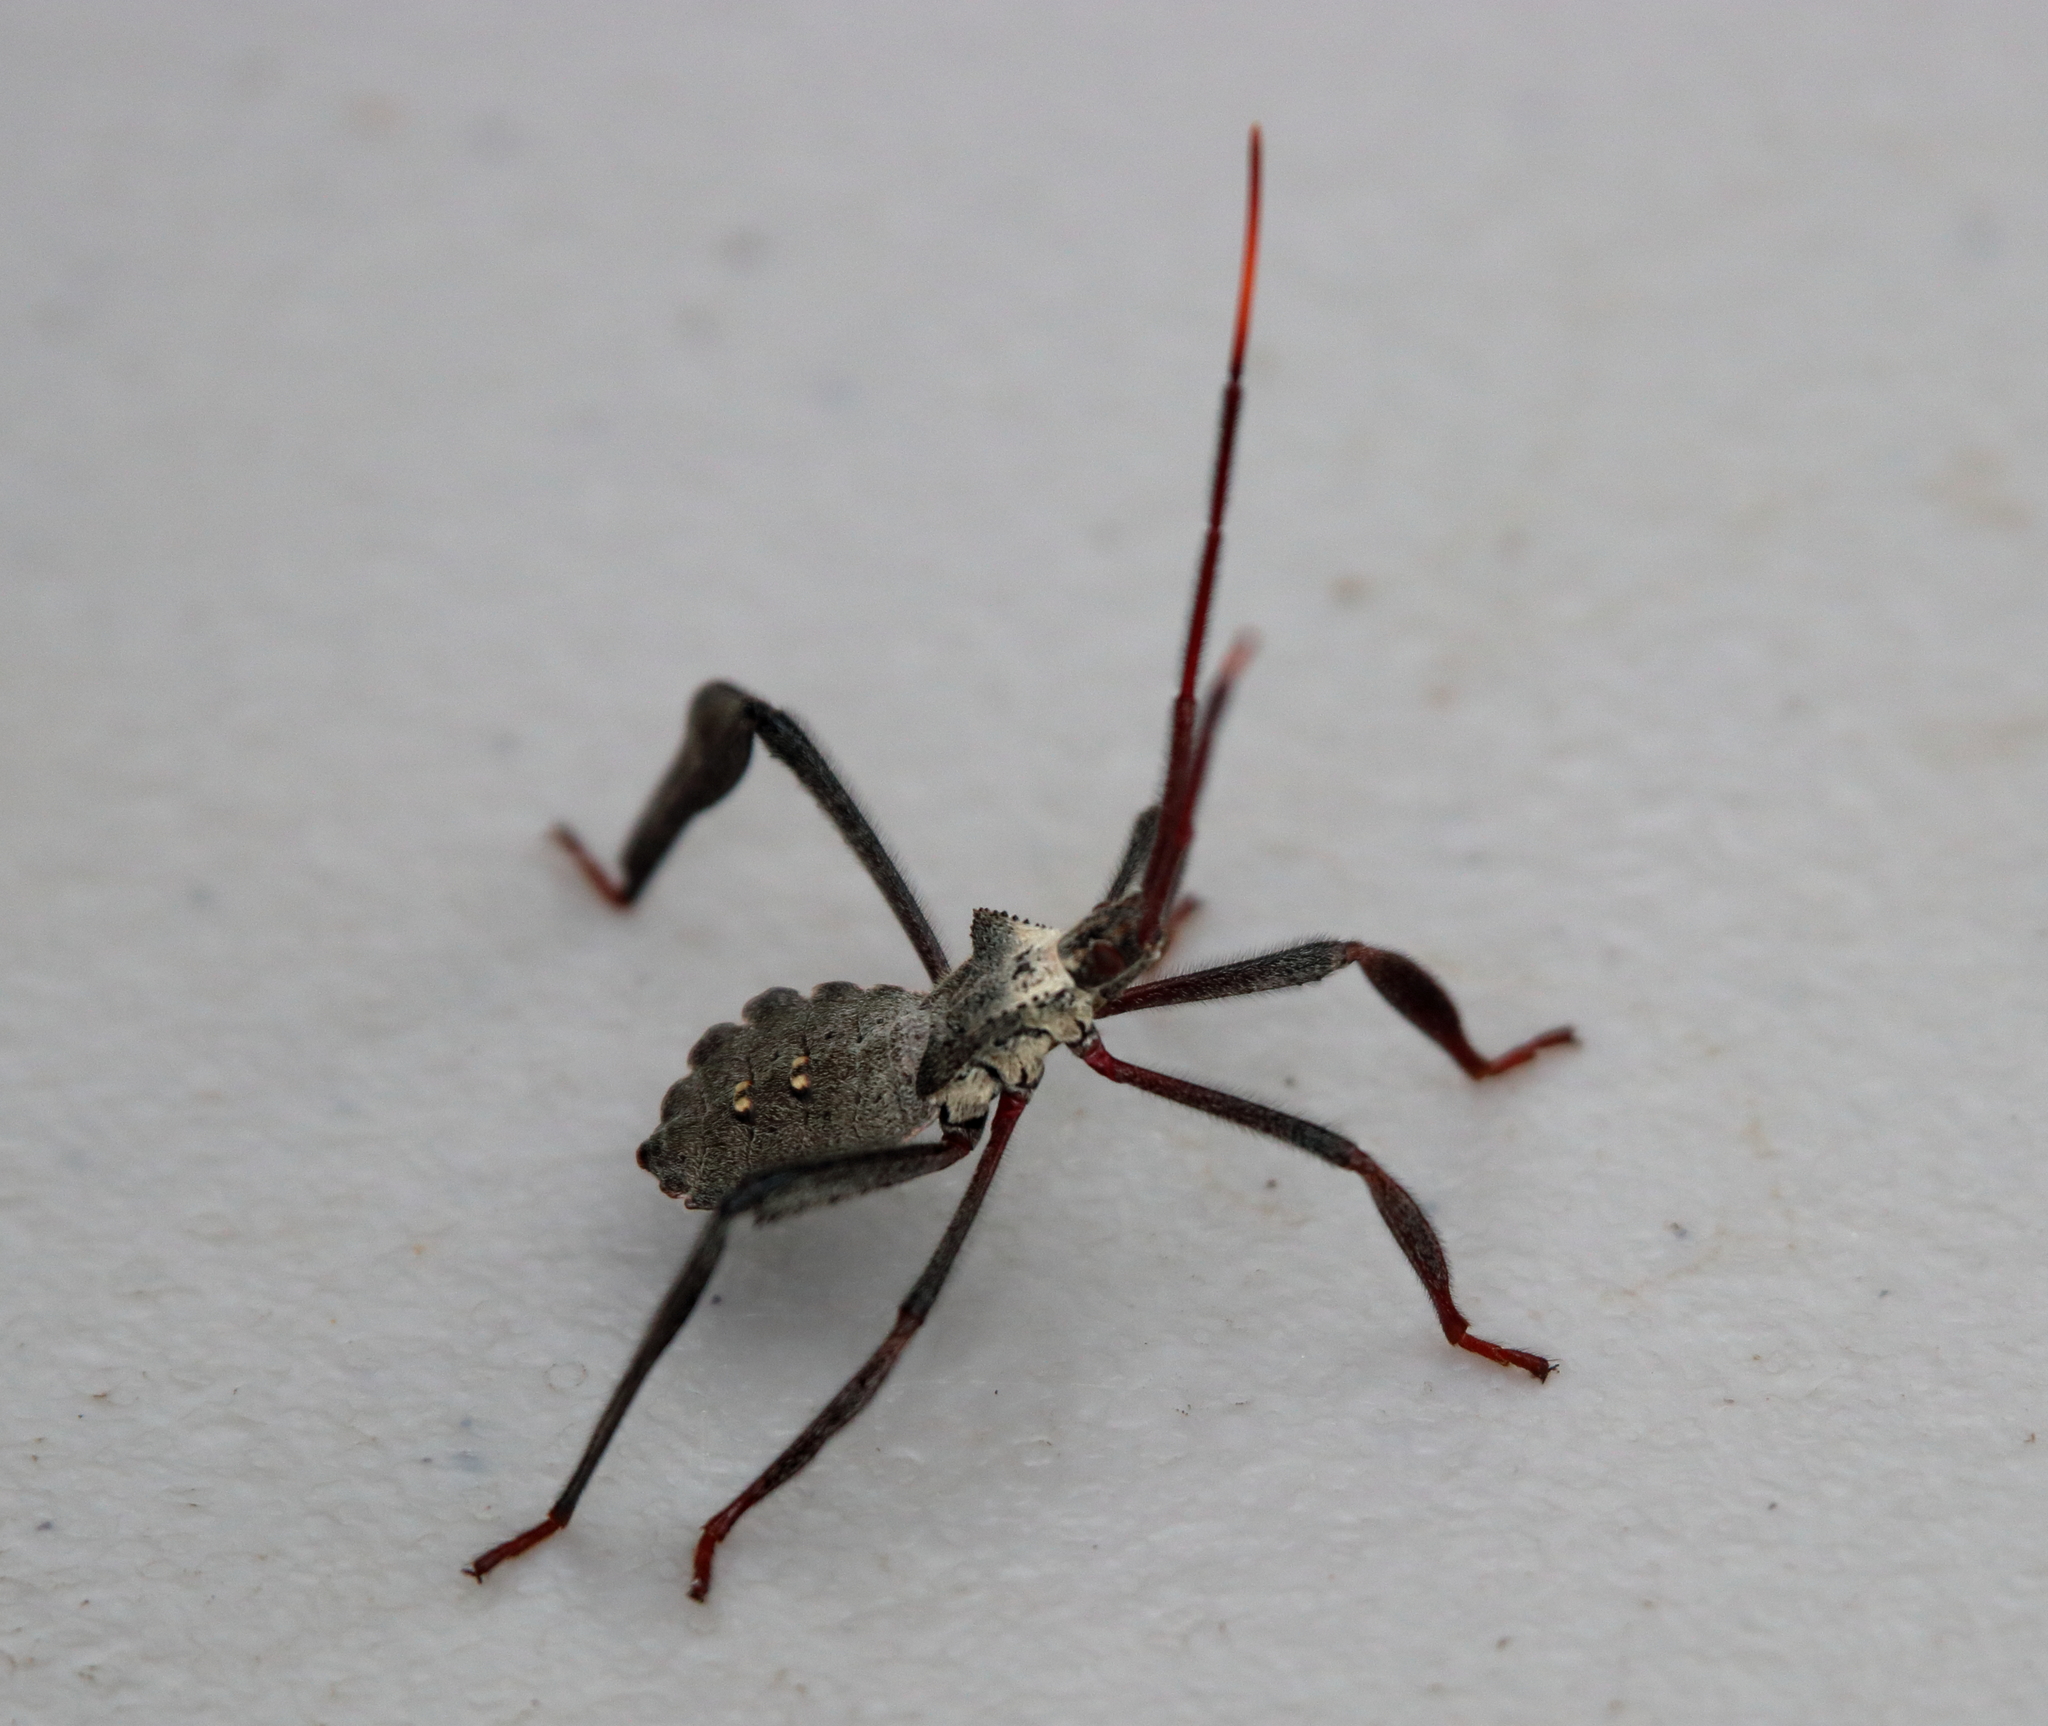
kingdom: Animalia
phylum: Arthropoda
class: Insecta
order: Hemiptera
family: Coreidae
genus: Acanthocephala
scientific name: Acanthocephala declivis
